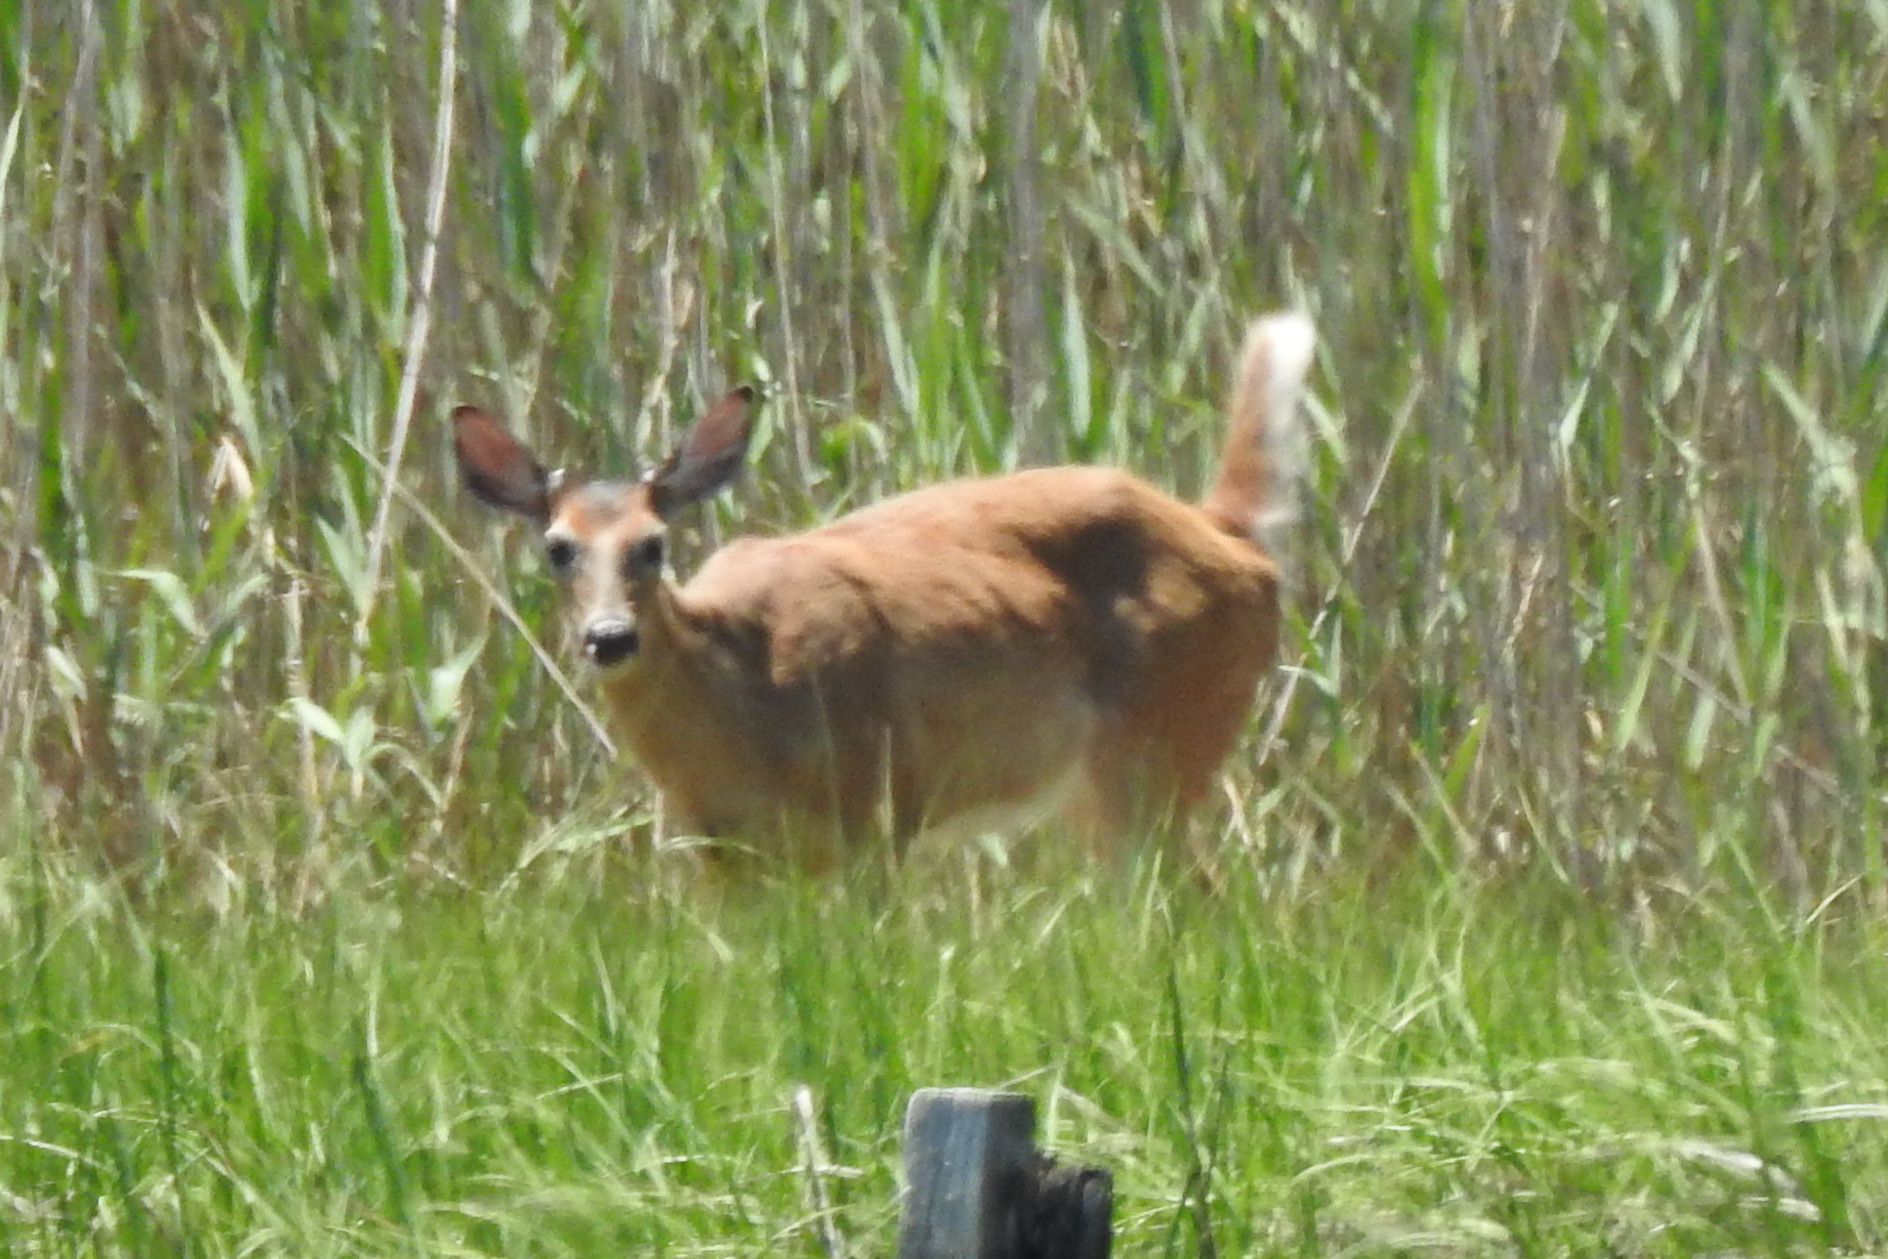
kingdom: Animalia
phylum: Chordata
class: Mammalia
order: Artiodactyla
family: Cervidae
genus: Odocoileus
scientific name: Odocoileus virginianus
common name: White-tailed deer
